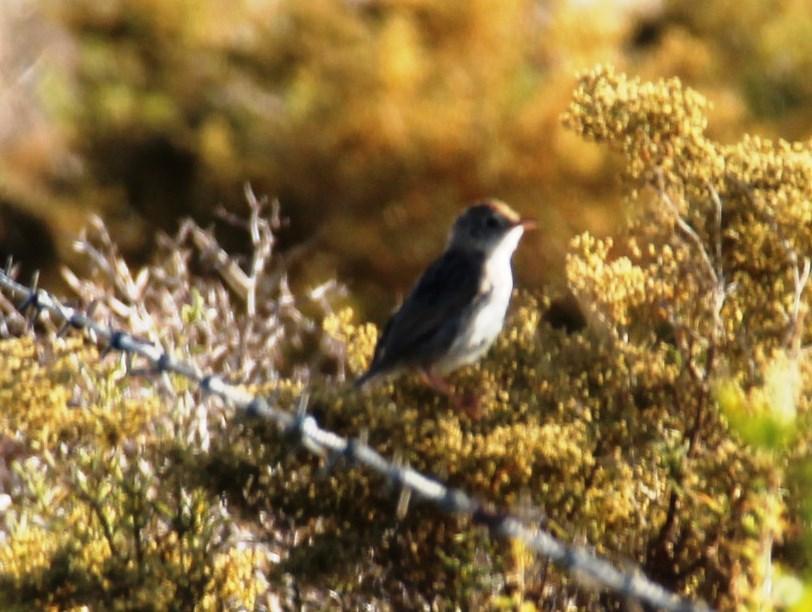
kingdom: Animalia
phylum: Chordata
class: Aves
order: Passeriformes
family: Cisticolidae
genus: Cisticola
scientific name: Cisticola fulvicapilla
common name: Neddicky
